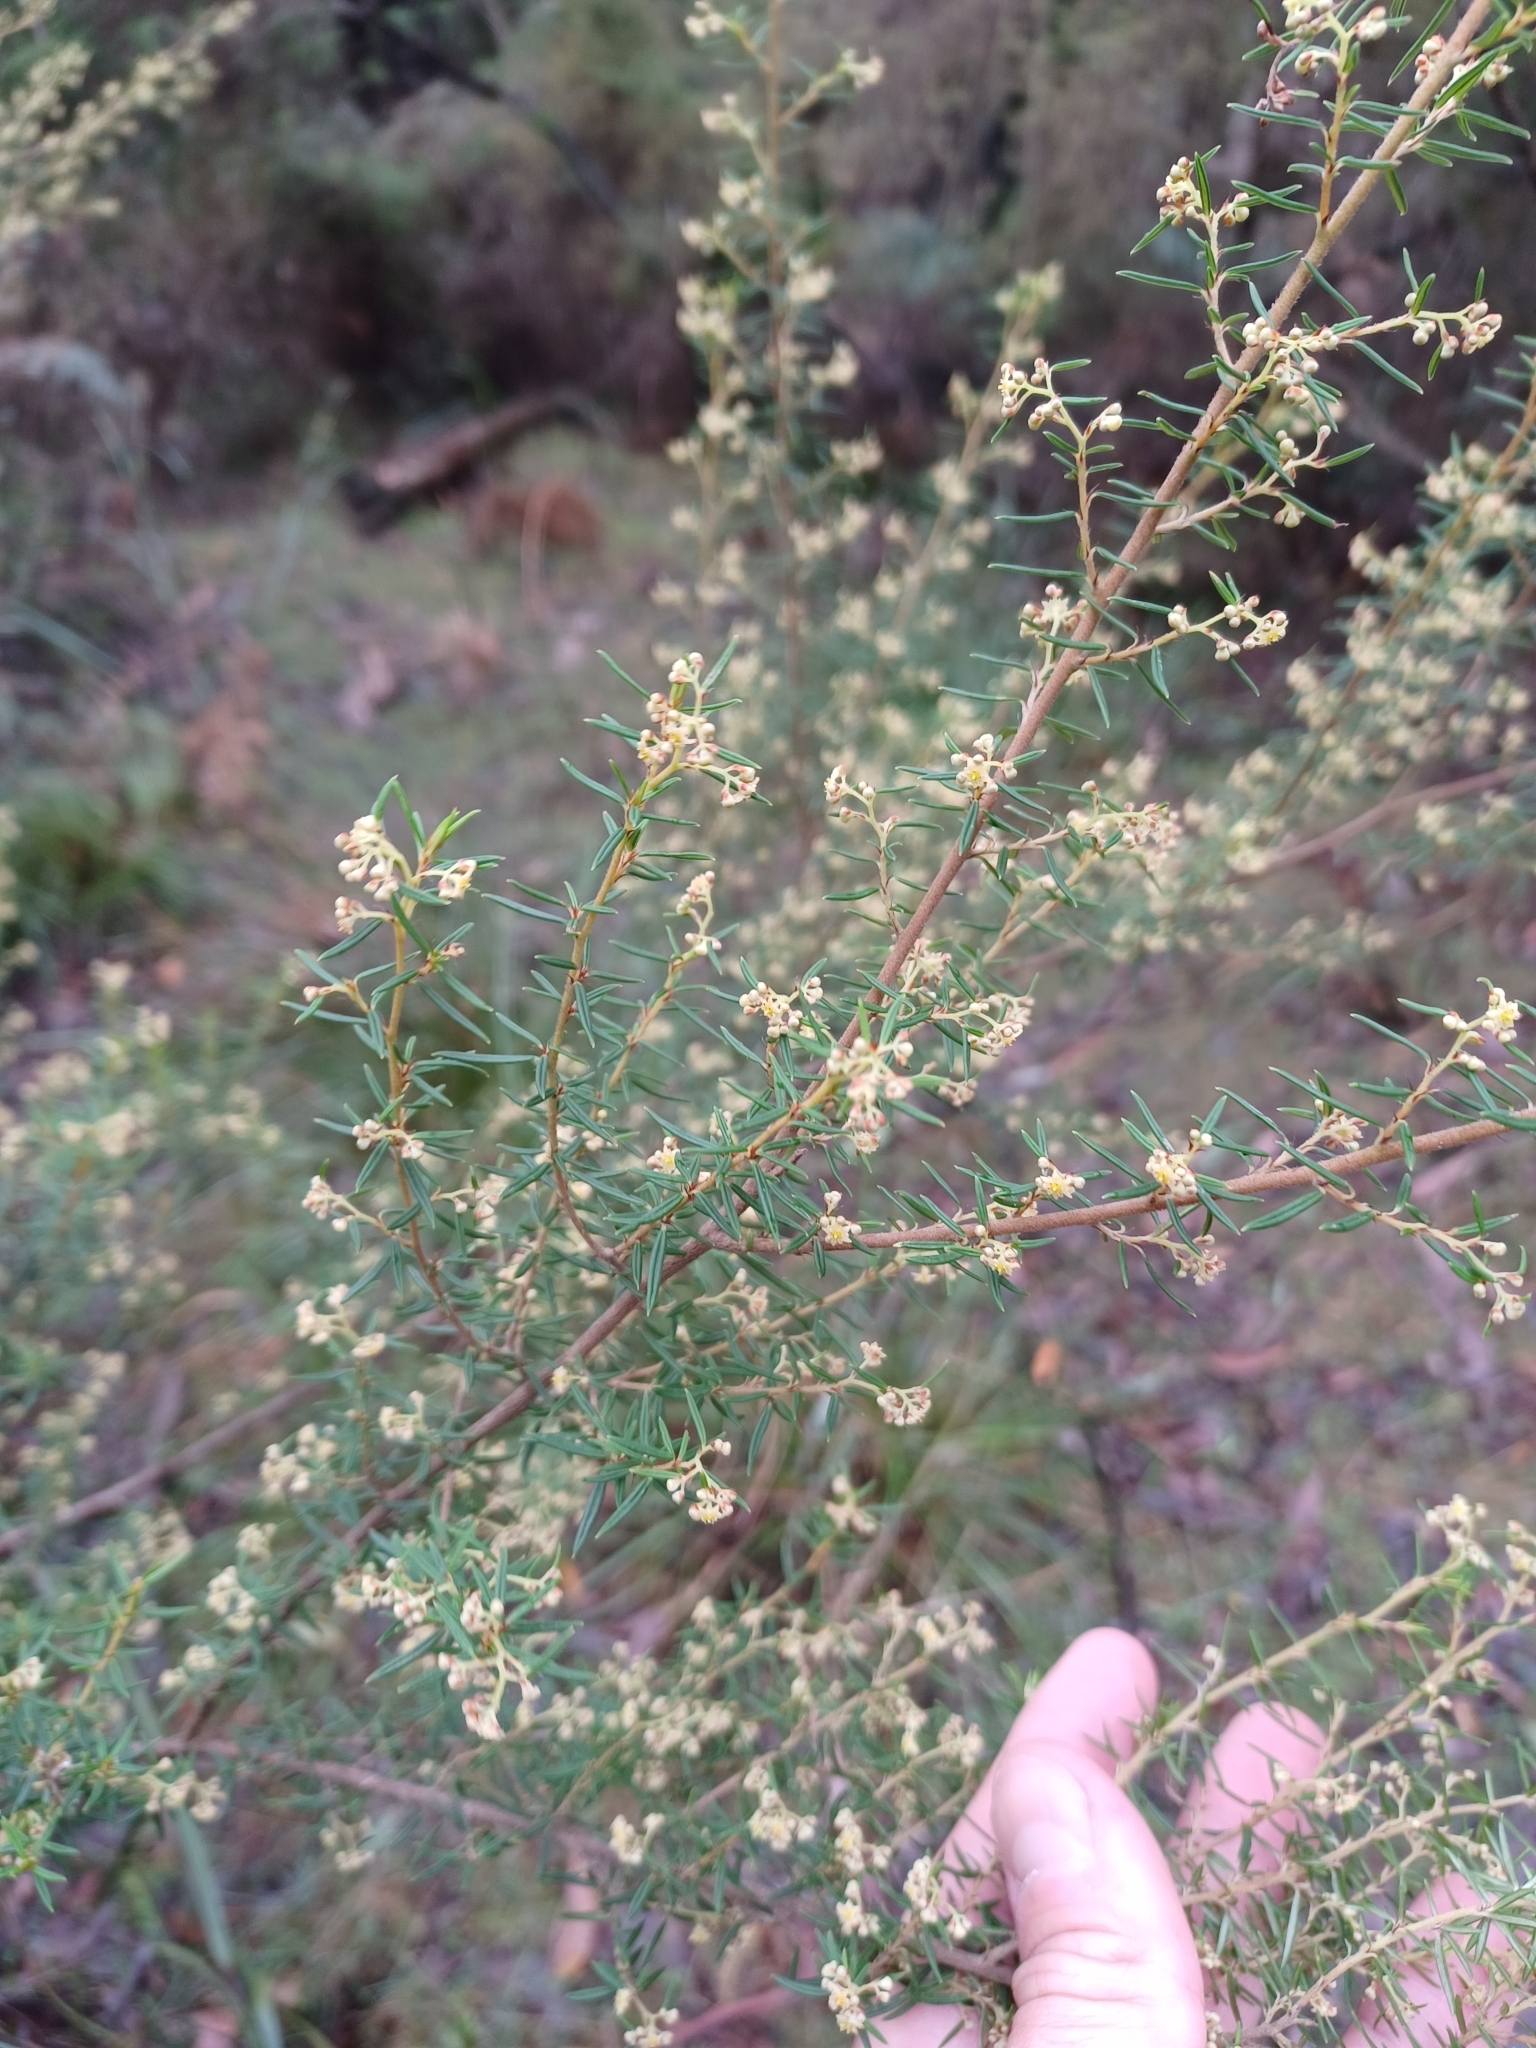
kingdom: Plantae
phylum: Tracheophyta
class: Magnoliopsida
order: Rosales
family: Rhamnaceae
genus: Spyridium
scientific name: Spyridium daltonii
